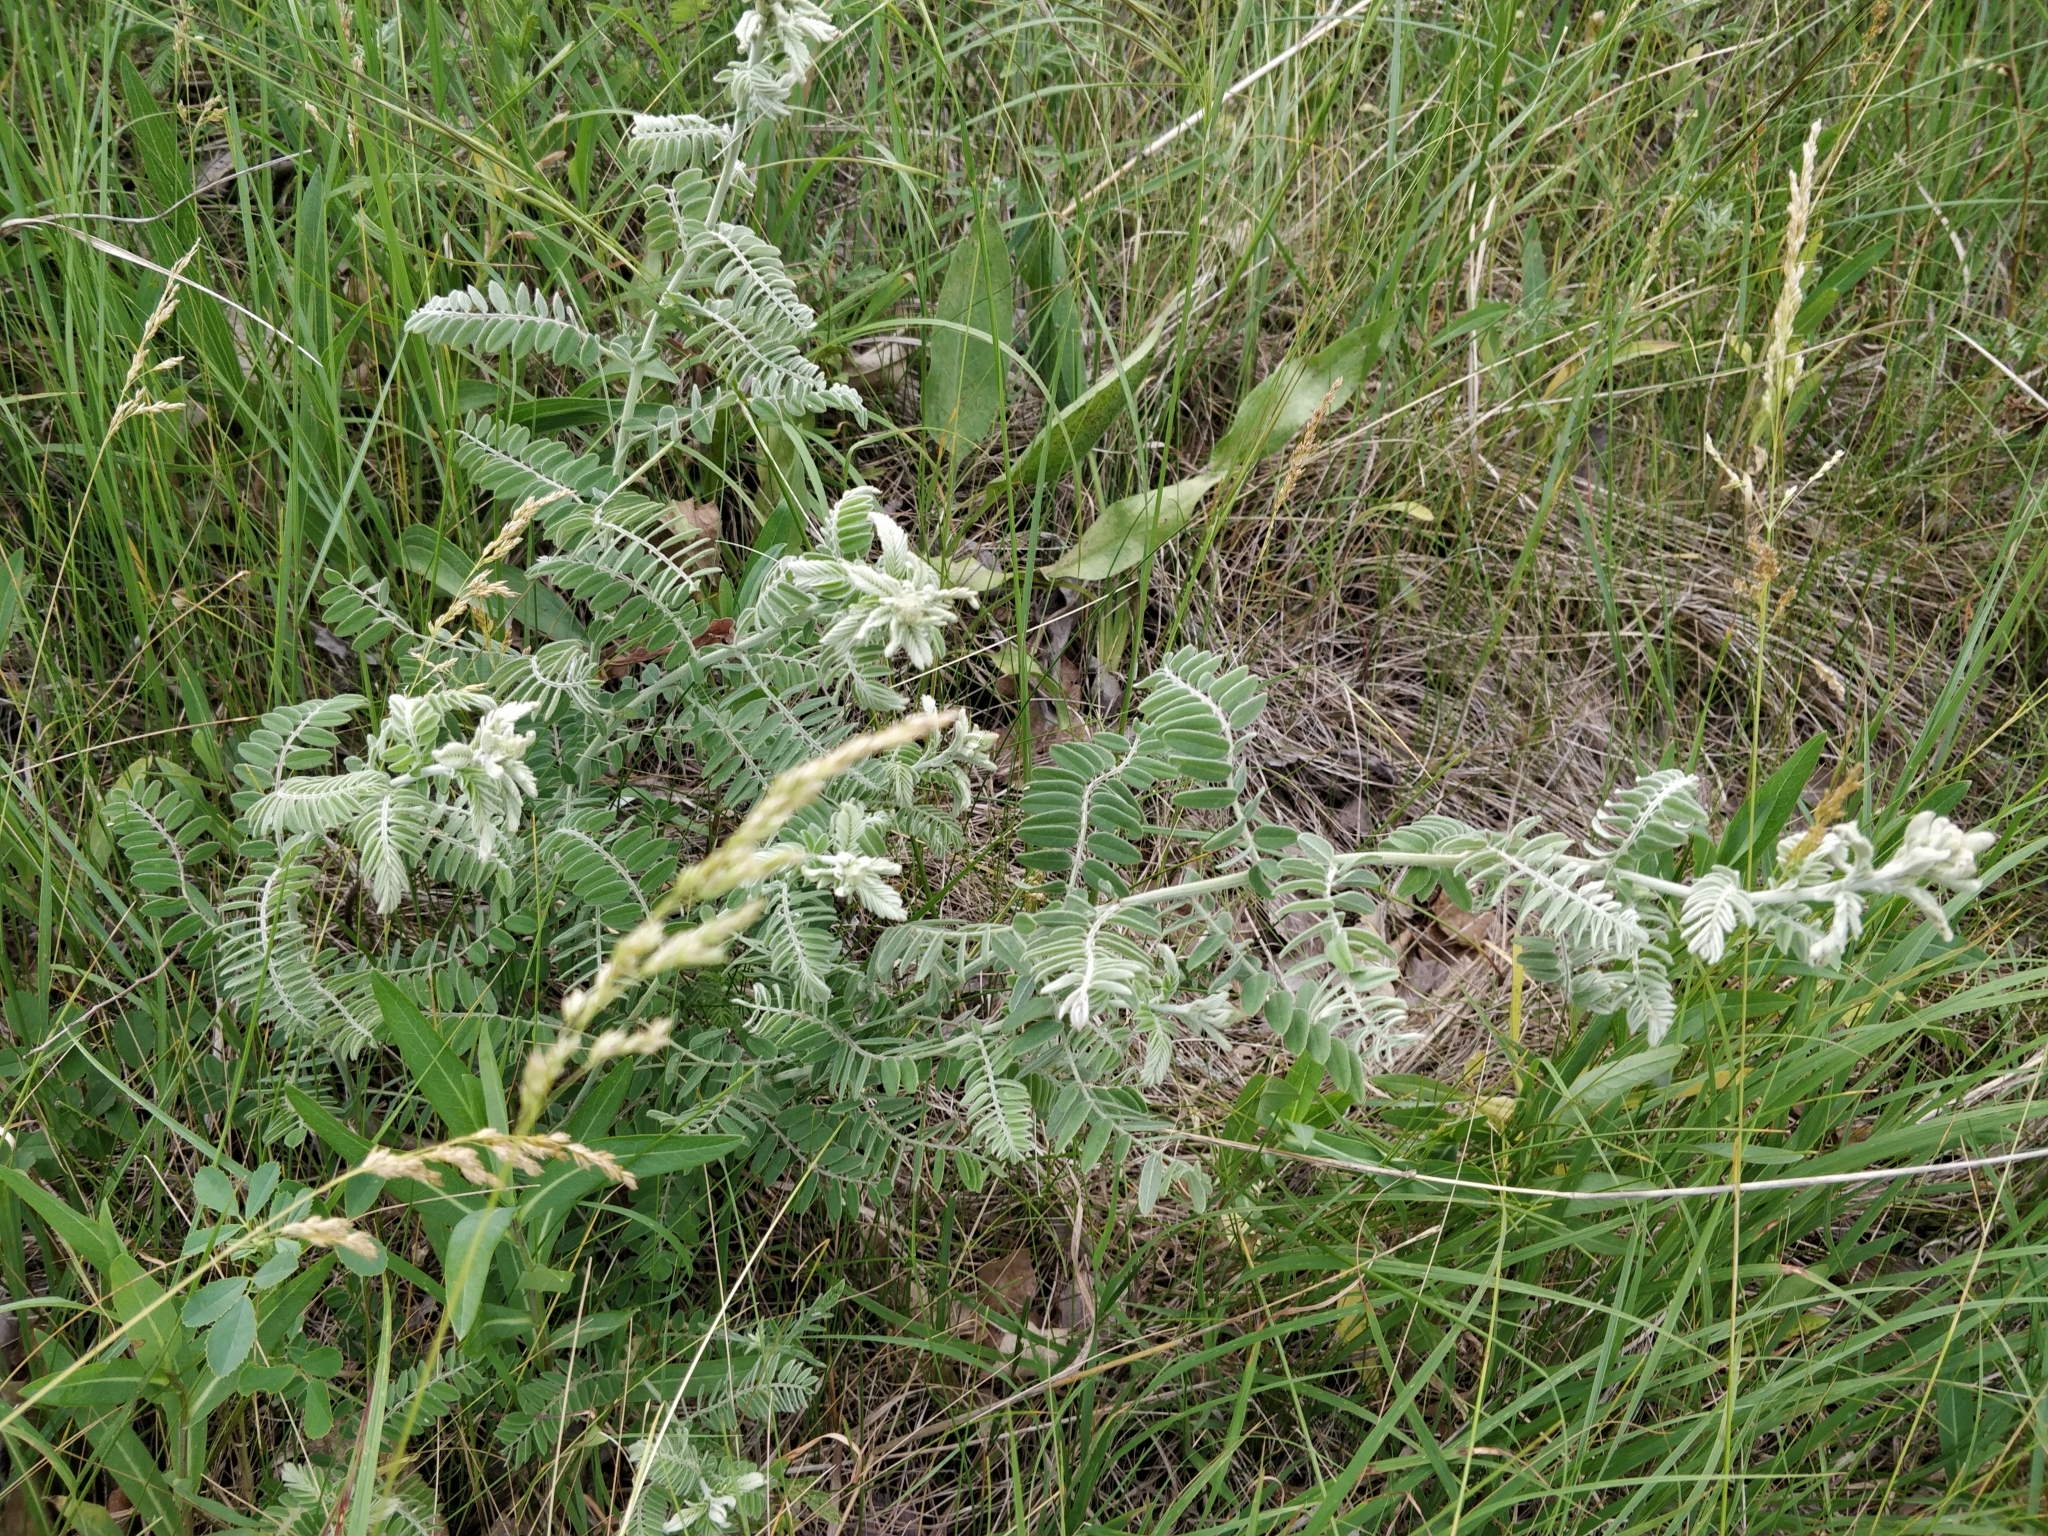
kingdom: Plantae
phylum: Tracheophyta
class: Magnoliopsida
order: Fabales
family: Fabaceae
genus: Amorpha
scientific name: Amorpha canescens
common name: Leadplant
